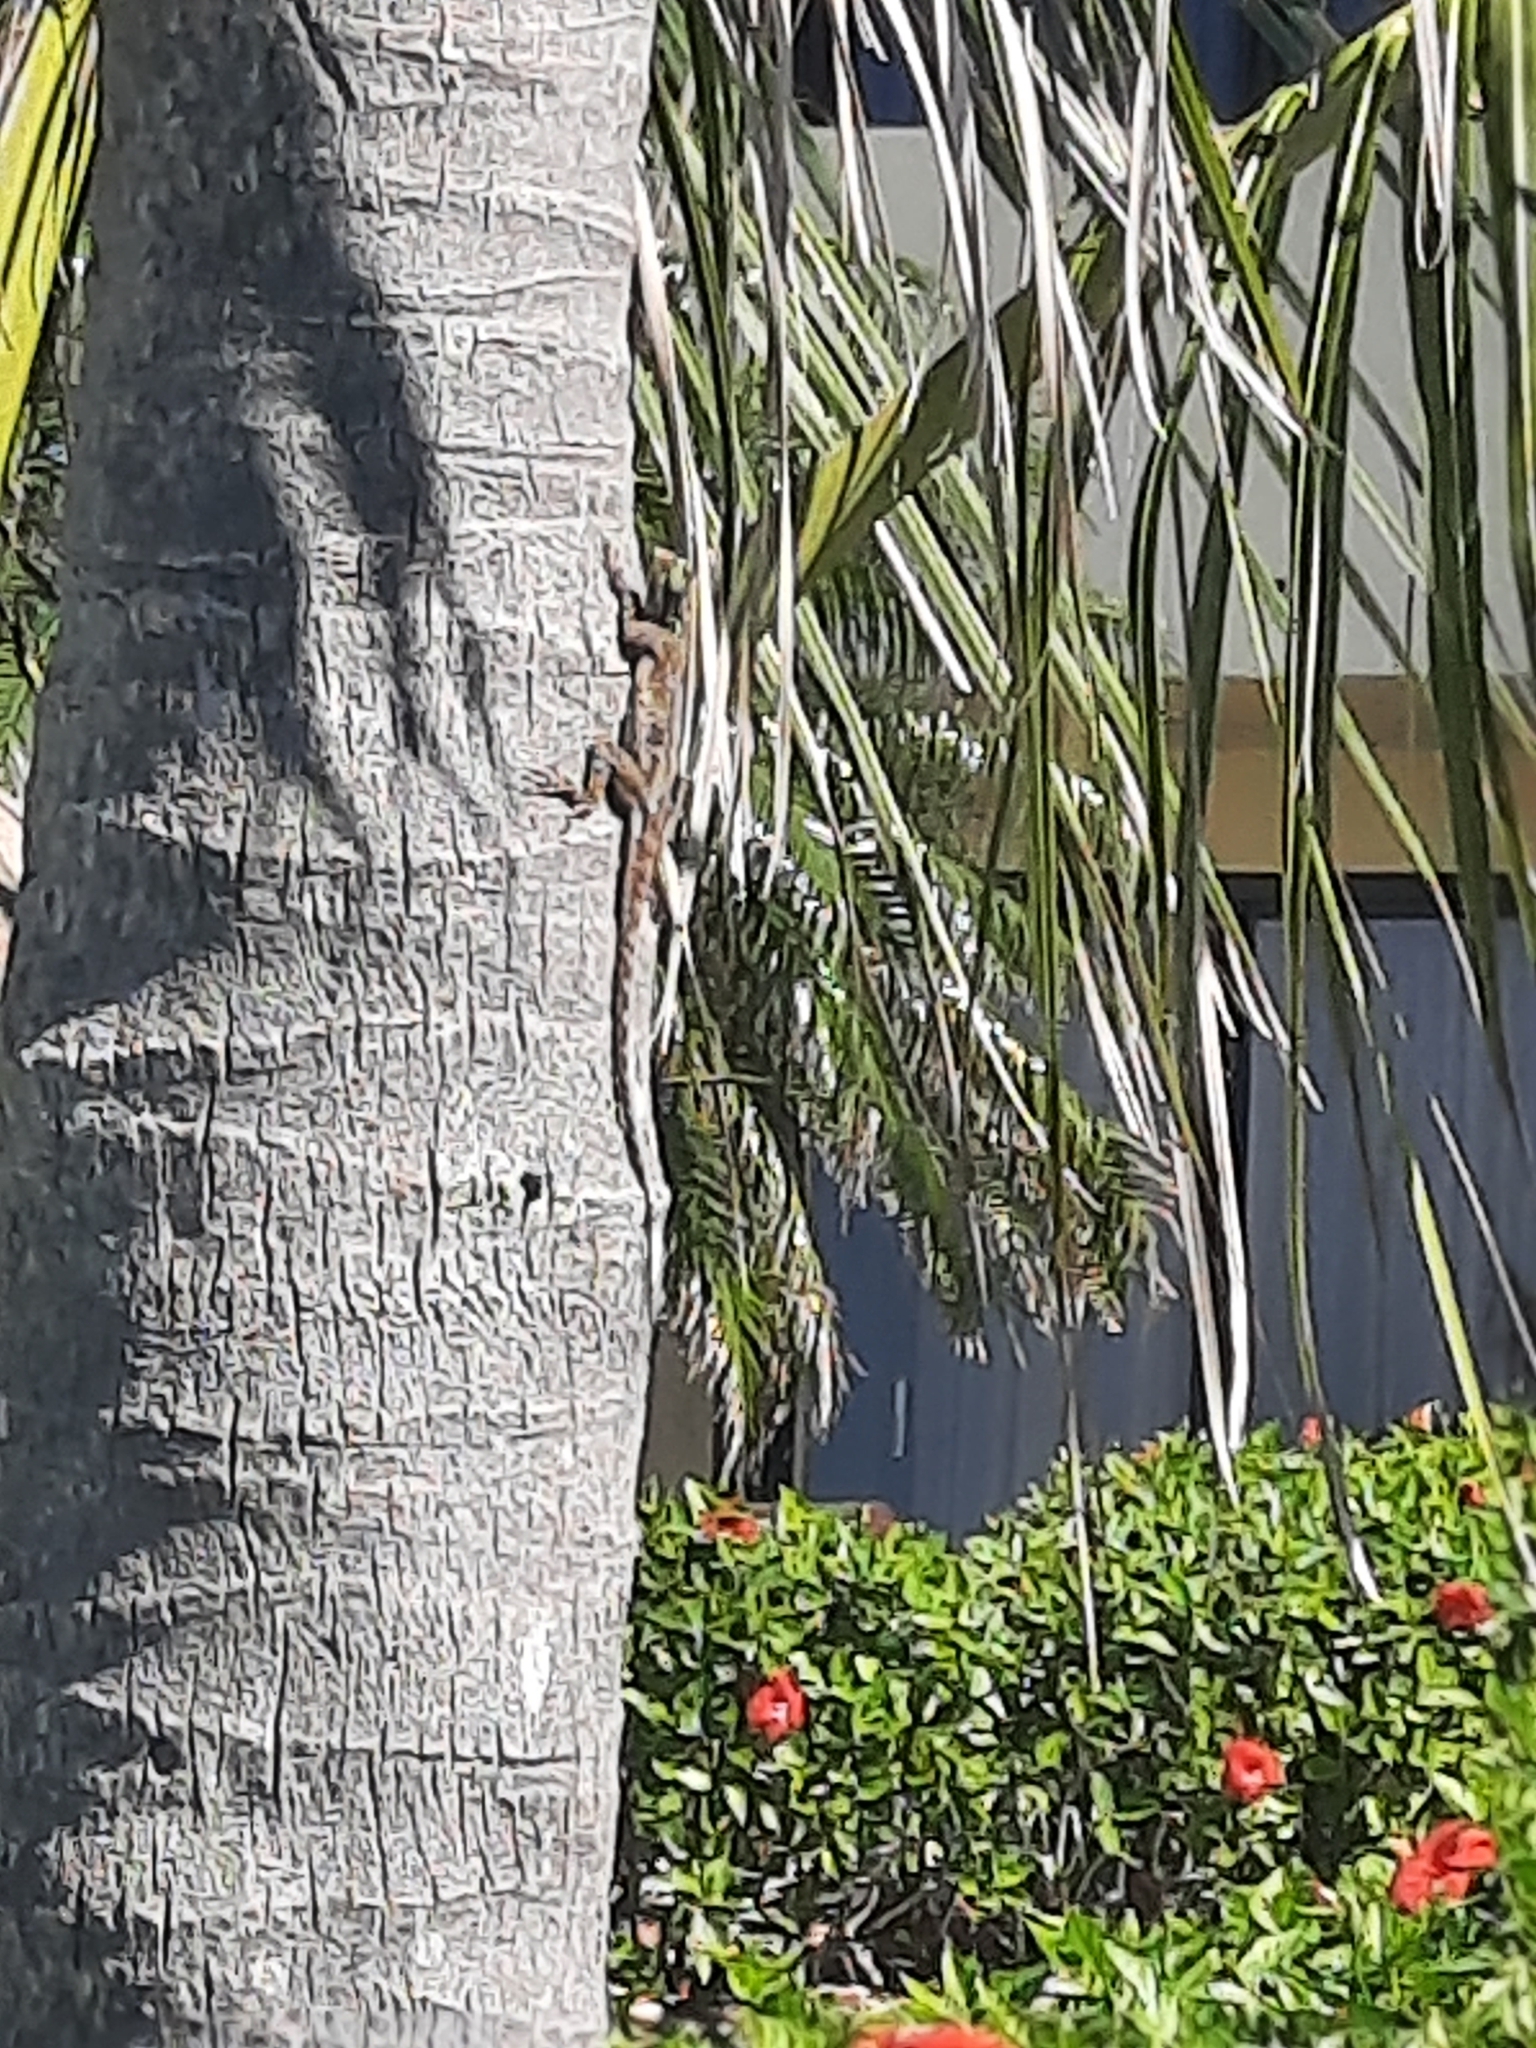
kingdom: Animalia
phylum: Chordata
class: Squamata
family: Agamidae
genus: Agama
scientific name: Agama picticauda
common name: Red-headed agama
